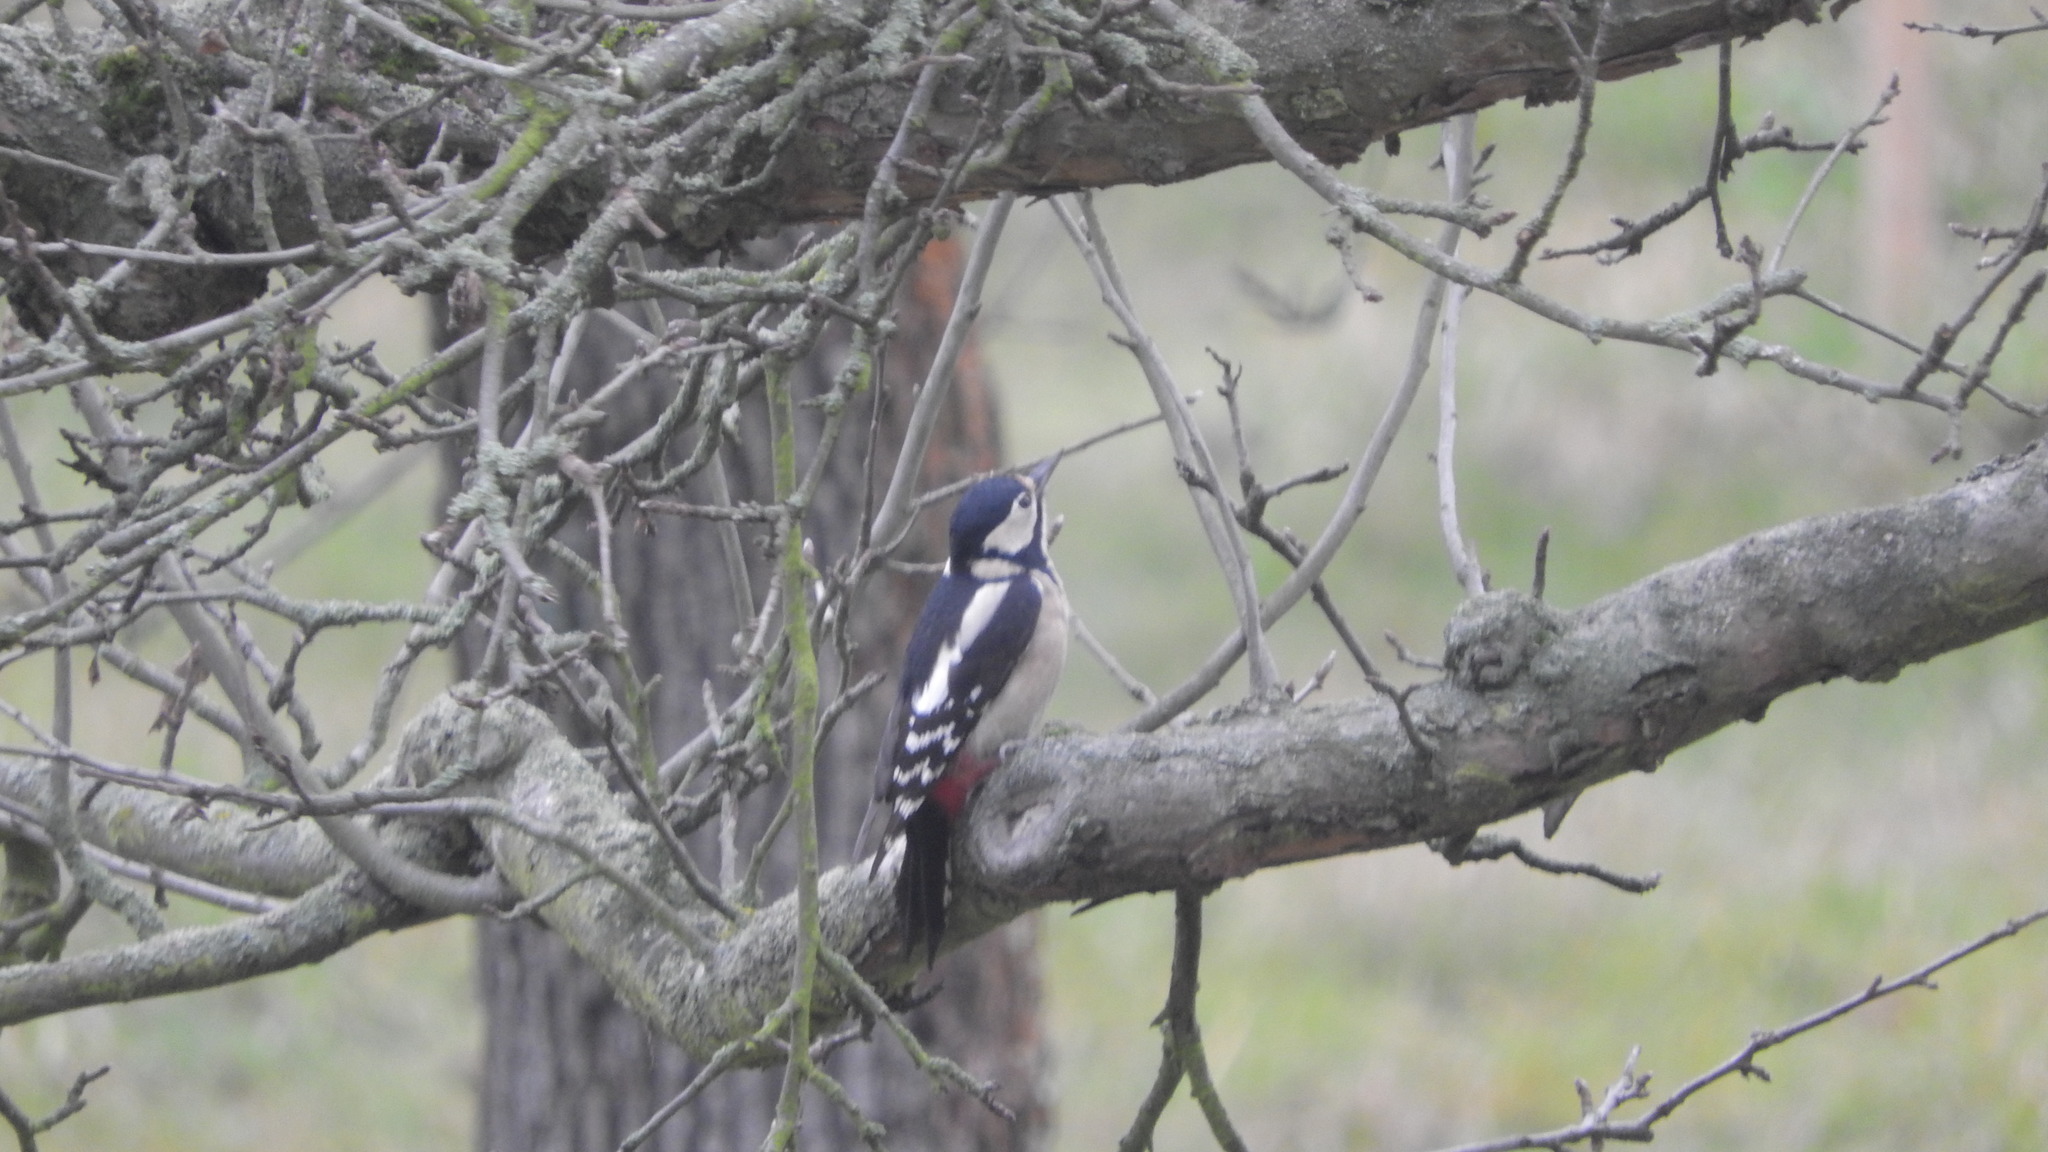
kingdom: Animalia
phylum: Chordata
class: Aves
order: Piciformes
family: Picidae
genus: Dendrocopos
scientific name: Dendrocopos major
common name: Great spotted woodpecker
